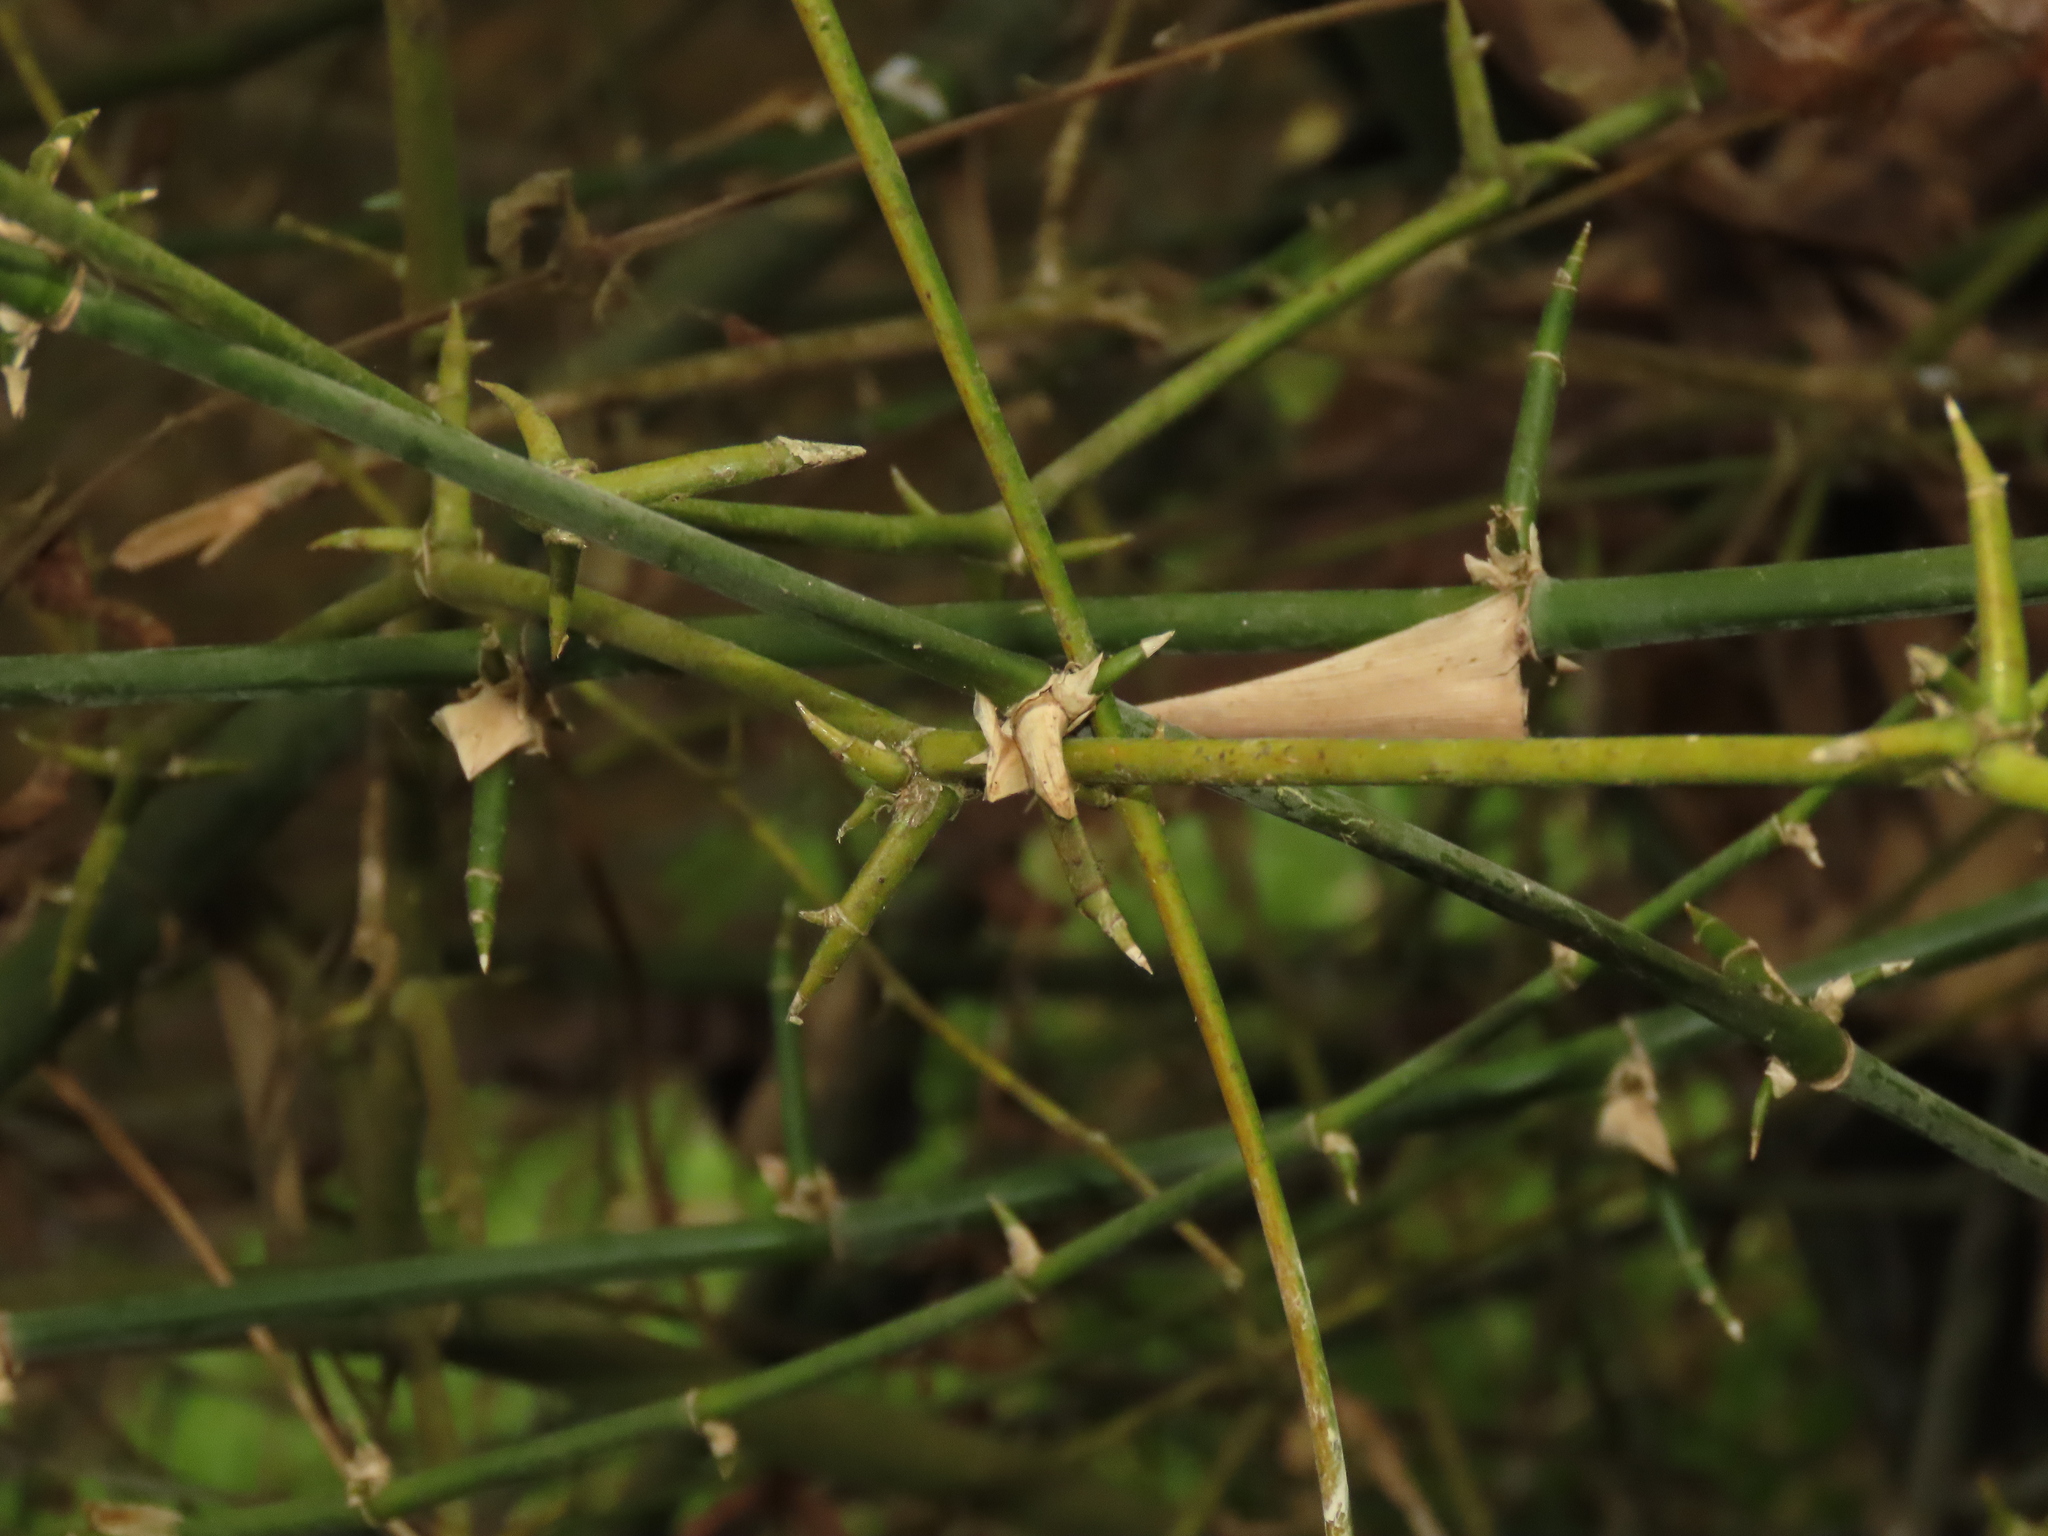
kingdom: Plantae
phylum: Tracheophyta
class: Liliopsida
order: Poales
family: Poaceae
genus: Bambusa
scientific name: Bambusa spinosa
